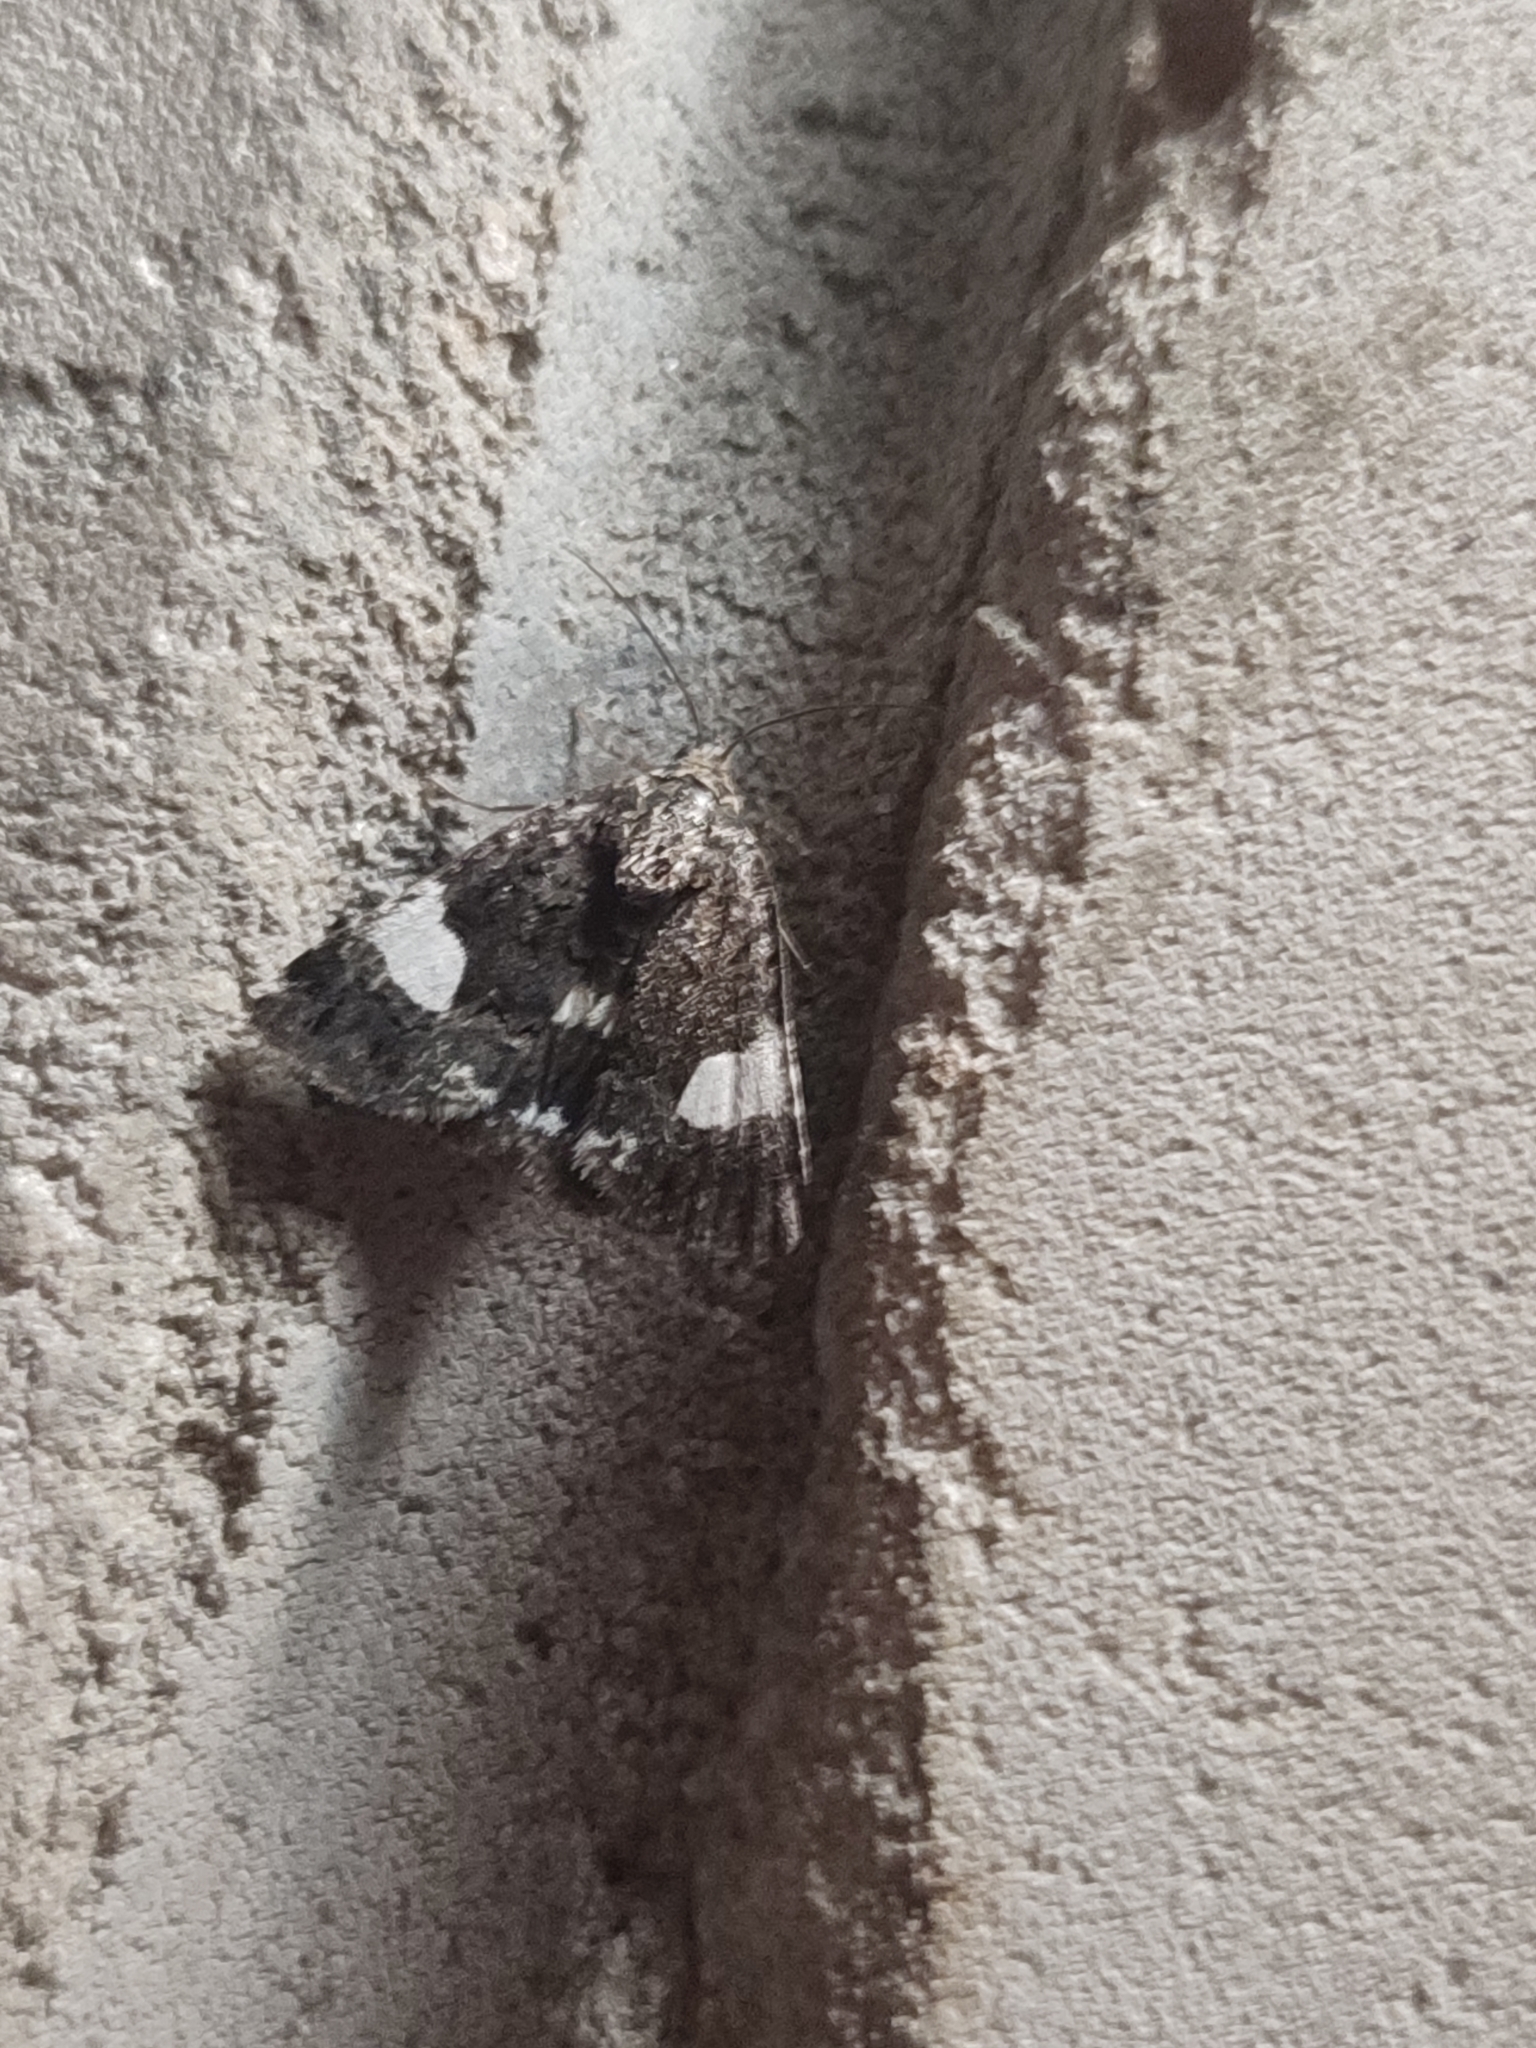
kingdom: Animalia
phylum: Arthropoda
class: Insecta
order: Lepidoptera
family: Erebidae
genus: Tyta
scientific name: Tyta luctuosa
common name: Four-spotted
